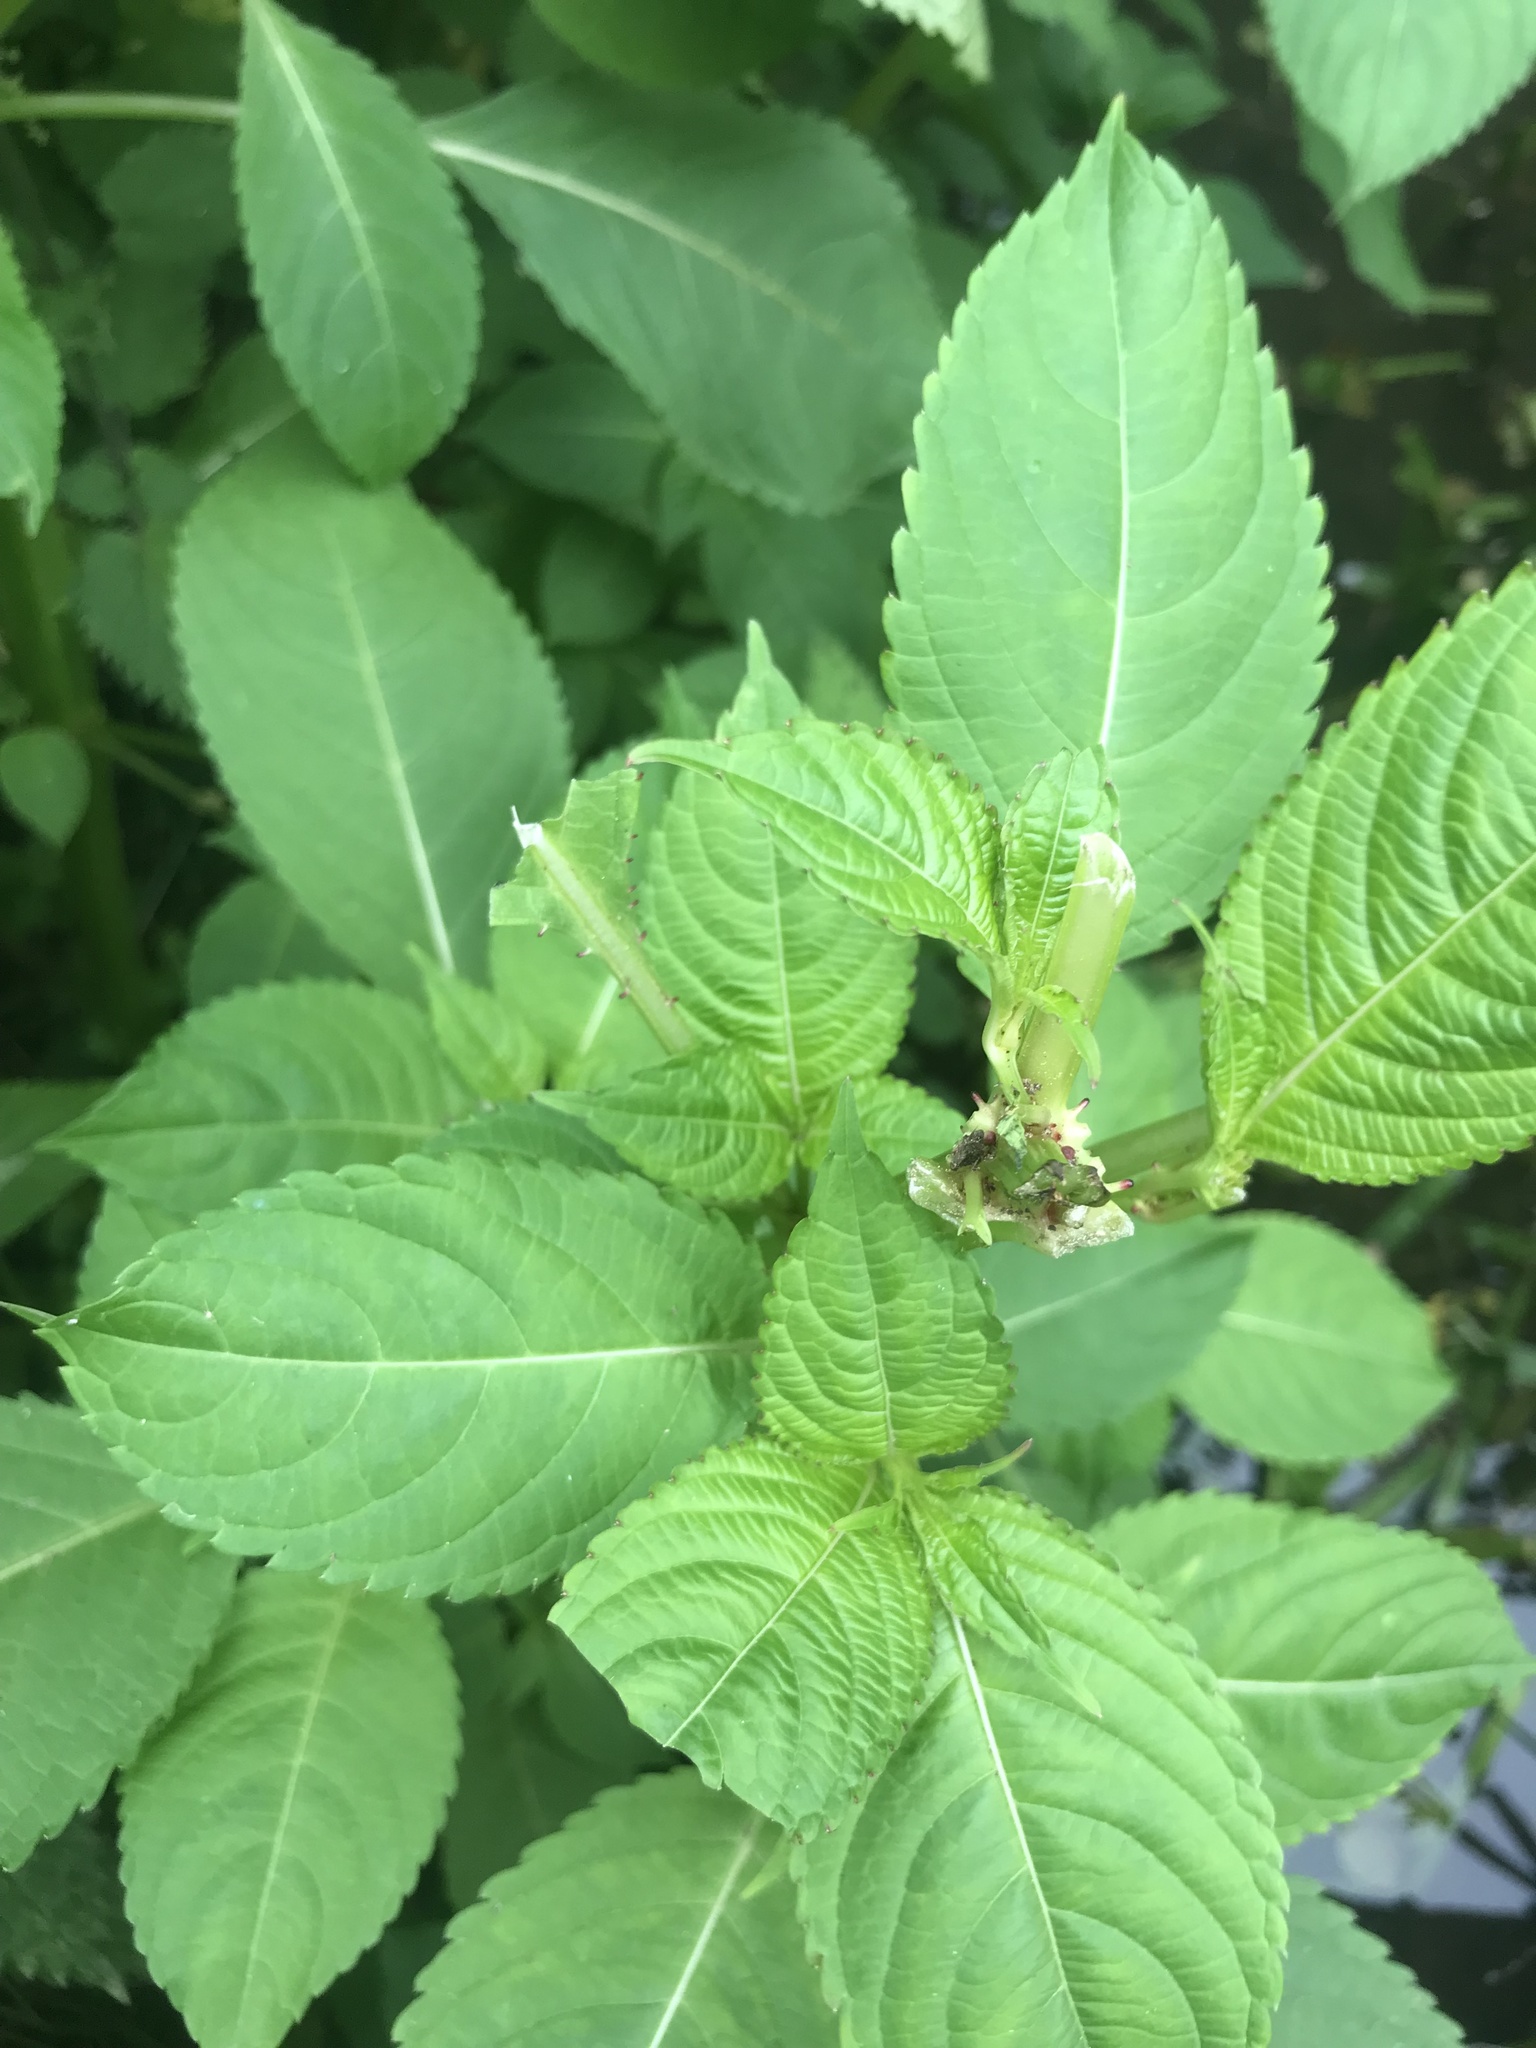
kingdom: Plantae
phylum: Tracheophyta
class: Magnoliopsida
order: Ericales
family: Balsaminaceae
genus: Impatiens
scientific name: Impatiens glandulifera
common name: Himalayan balsam
